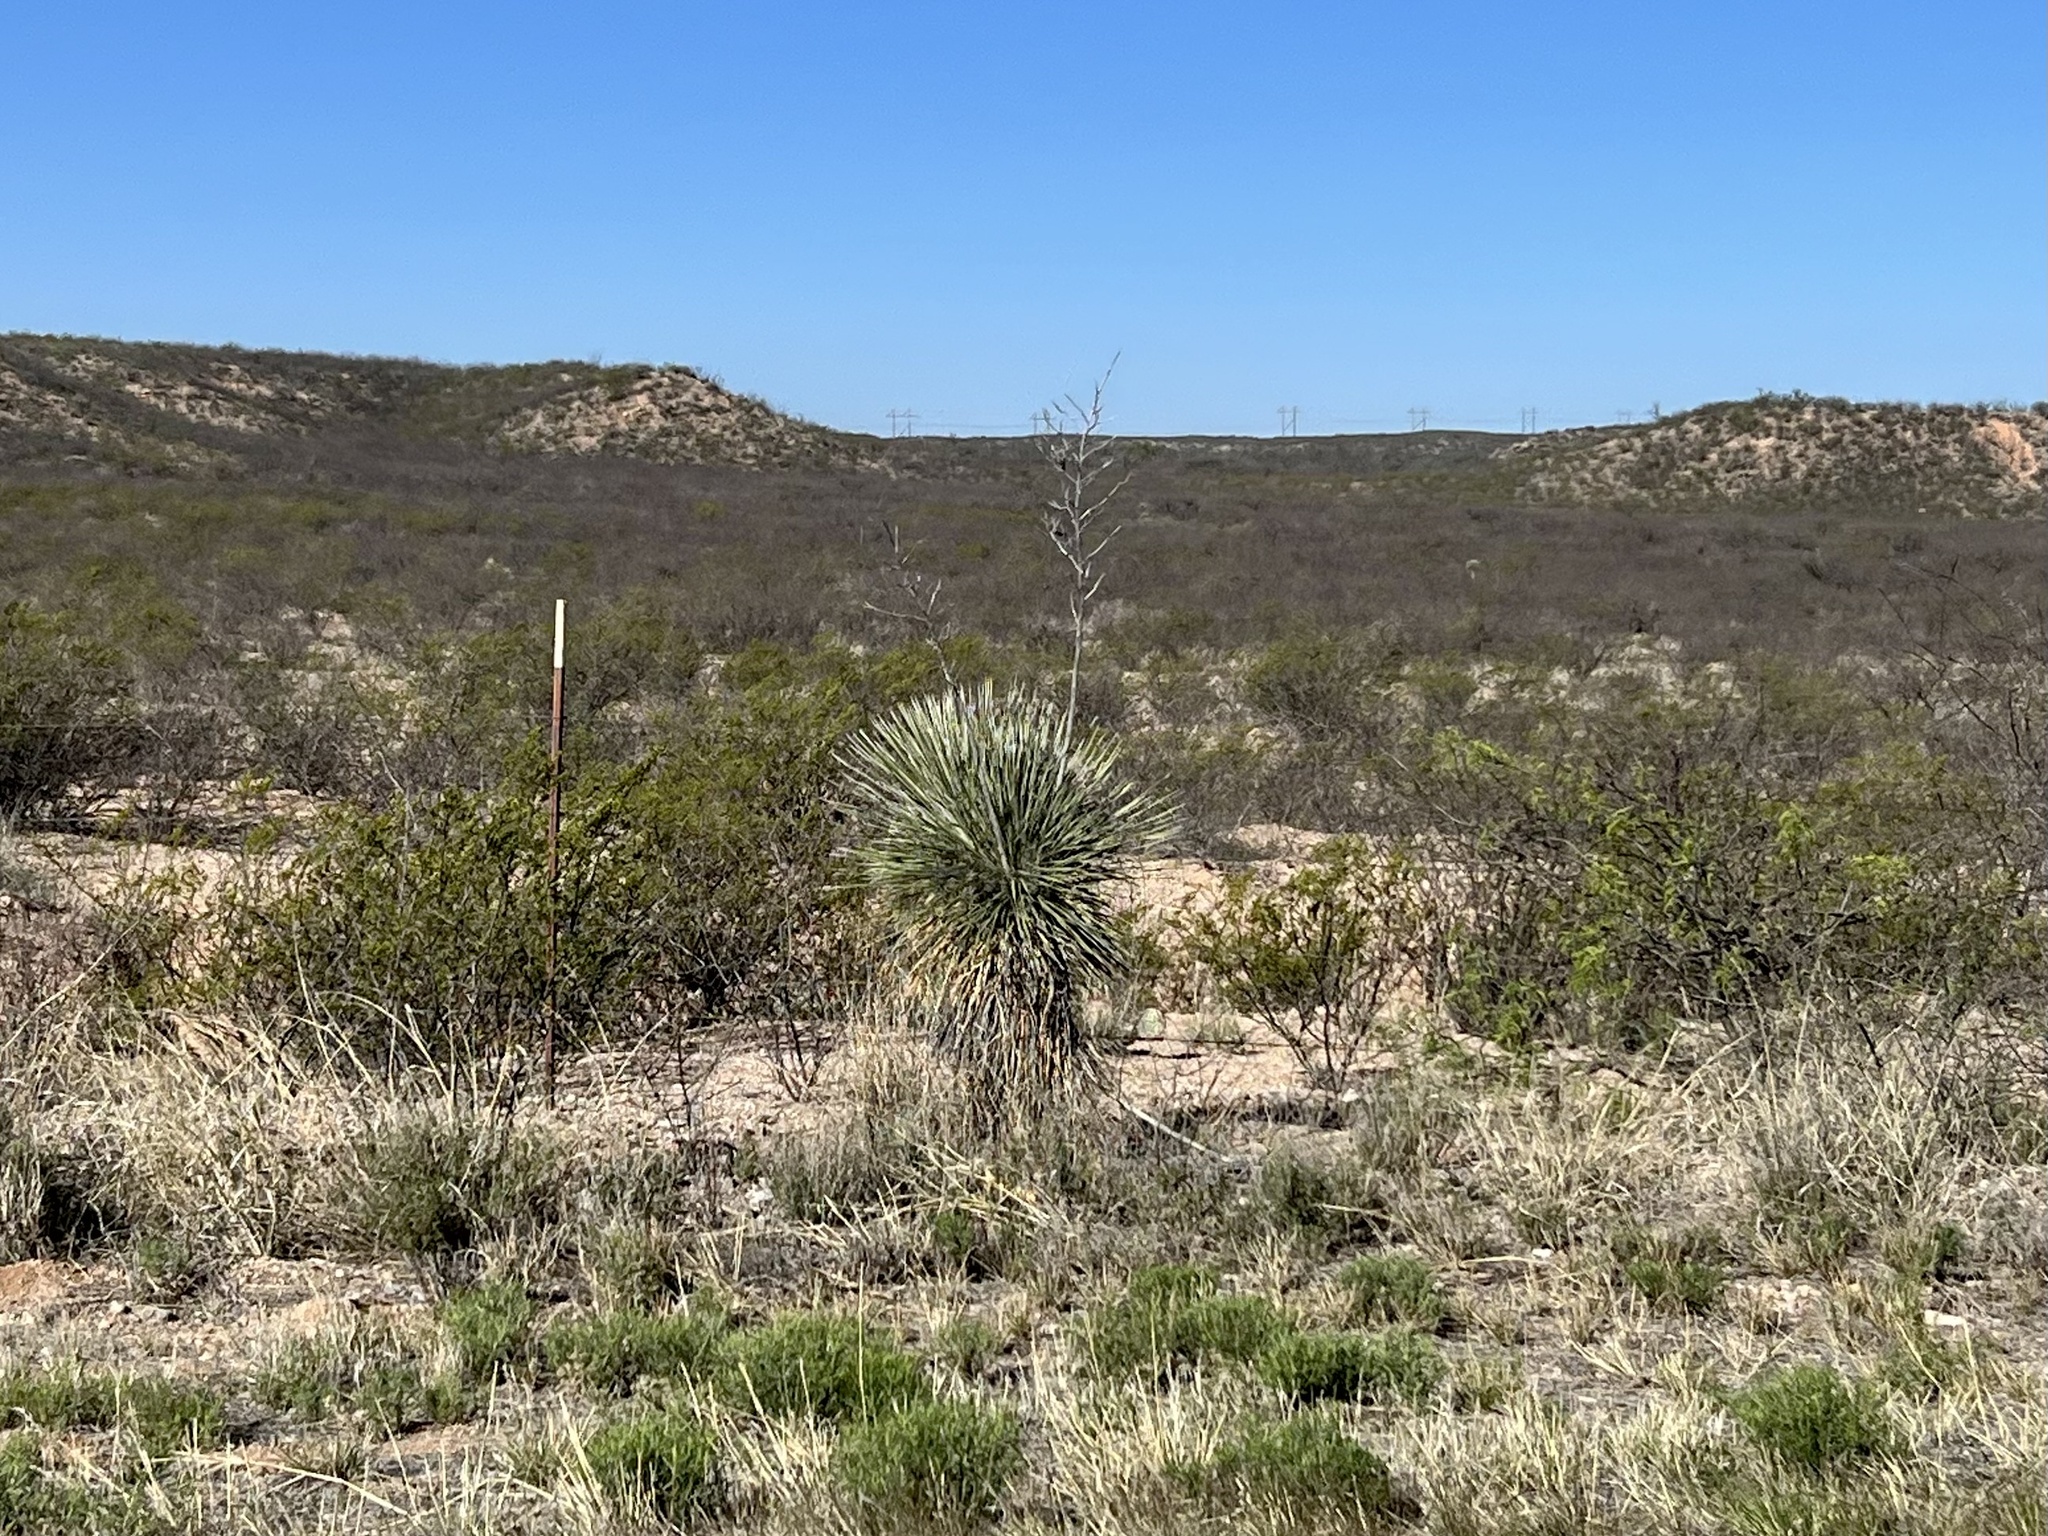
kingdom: Plantae
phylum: Tracheophyta
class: Liliopsida
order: Asparagales
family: Asparagaceae
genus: Yucca
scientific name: Yucca elata
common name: Palmella
